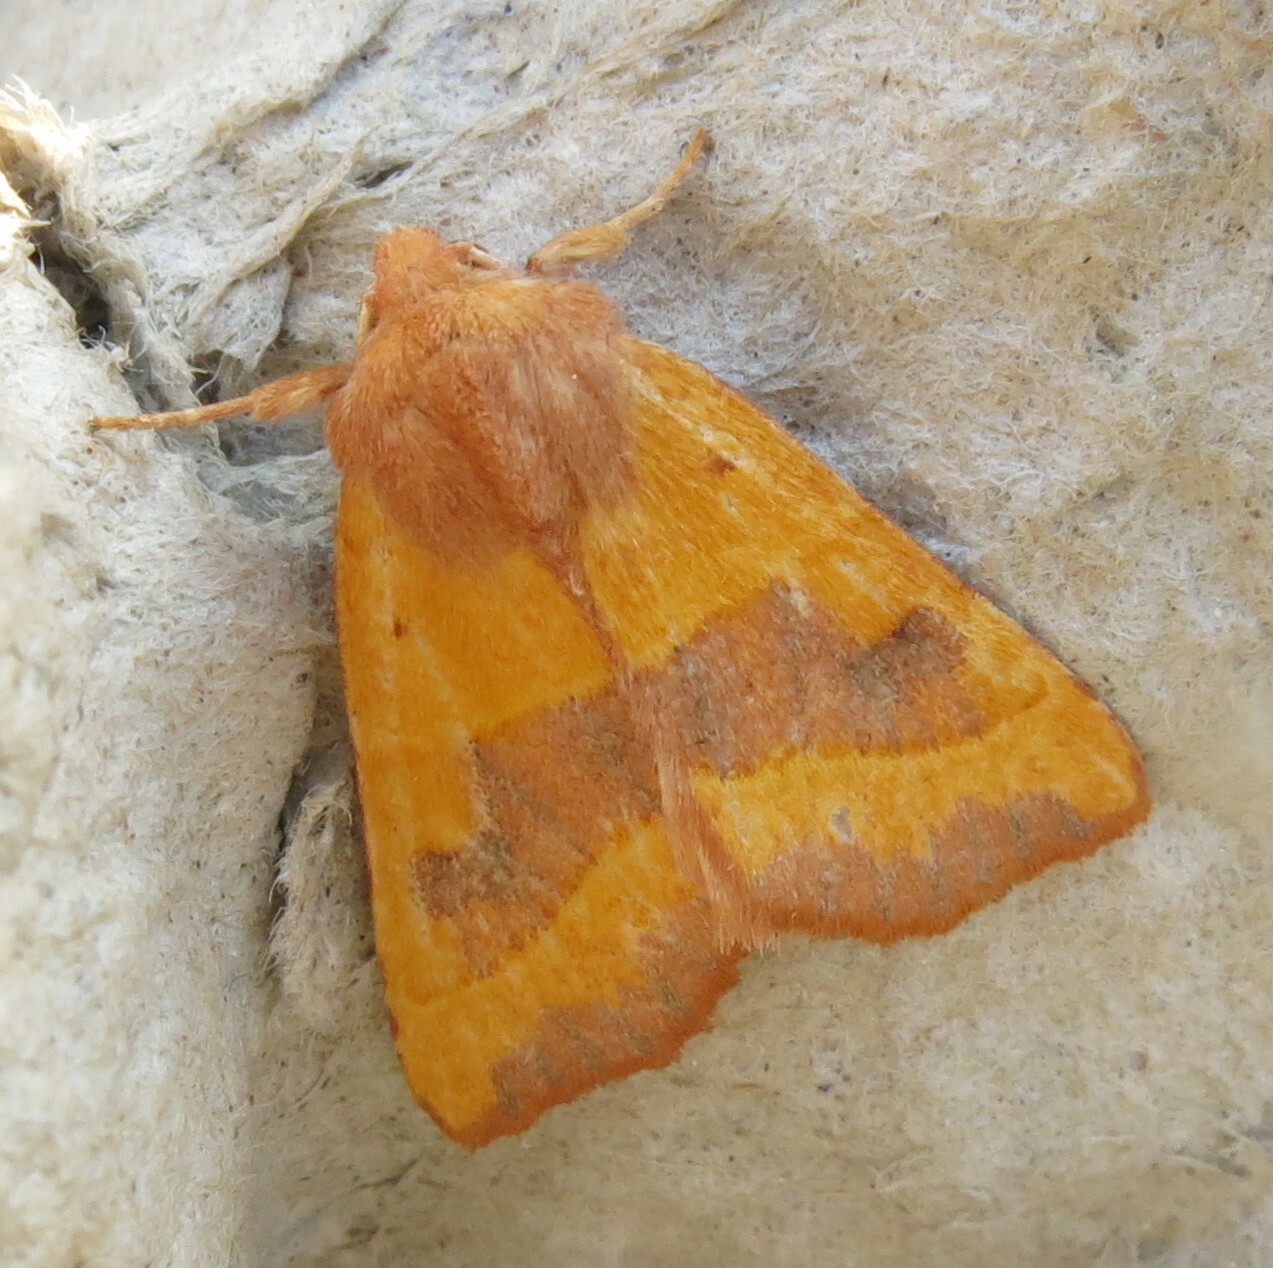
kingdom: Animalia
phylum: Arthropoda
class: Insecta
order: Lepidoptera
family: Noctuidae
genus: Atethmia
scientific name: Atethmia centrago
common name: Centre-barred sallow
